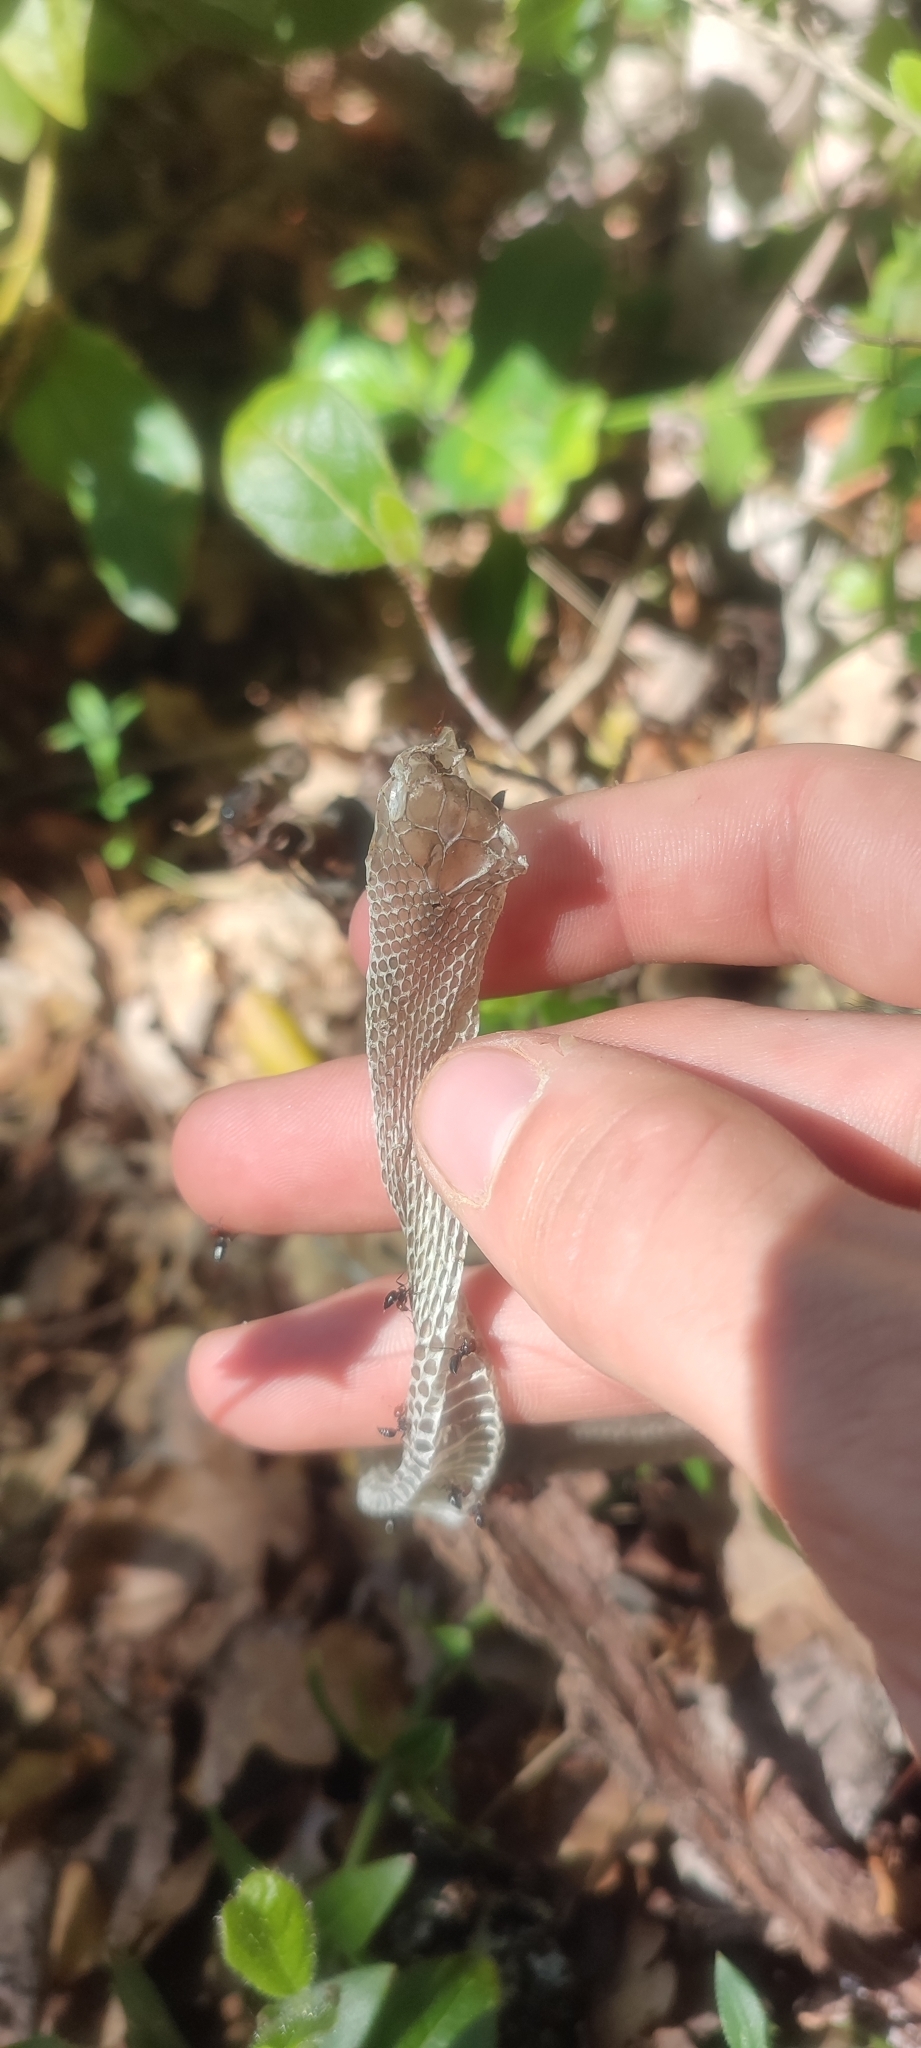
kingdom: Animalia
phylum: Chordata
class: Squamata
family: Psammophiidae
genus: Malpolon
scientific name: Malpolon monspessulanus
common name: Montpellier snake
